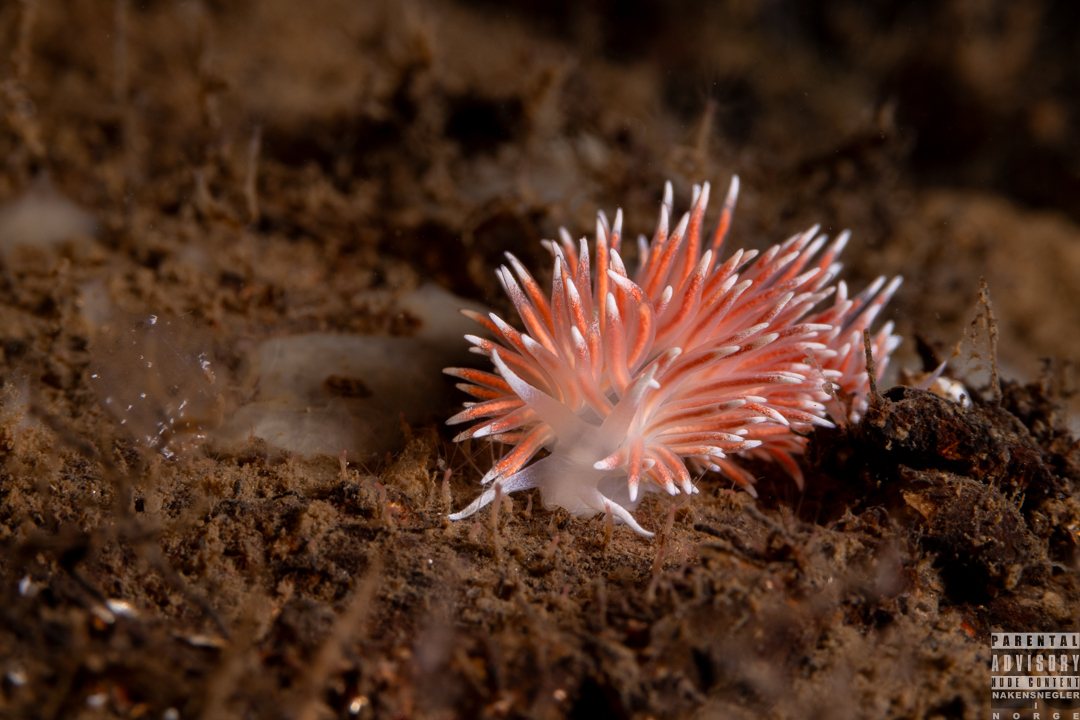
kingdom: Animalia
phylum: Mollusca
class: Gastropoda
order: Nudibranchia
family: Flabellinidae
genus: Carronella
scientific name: Carronella pellucida
